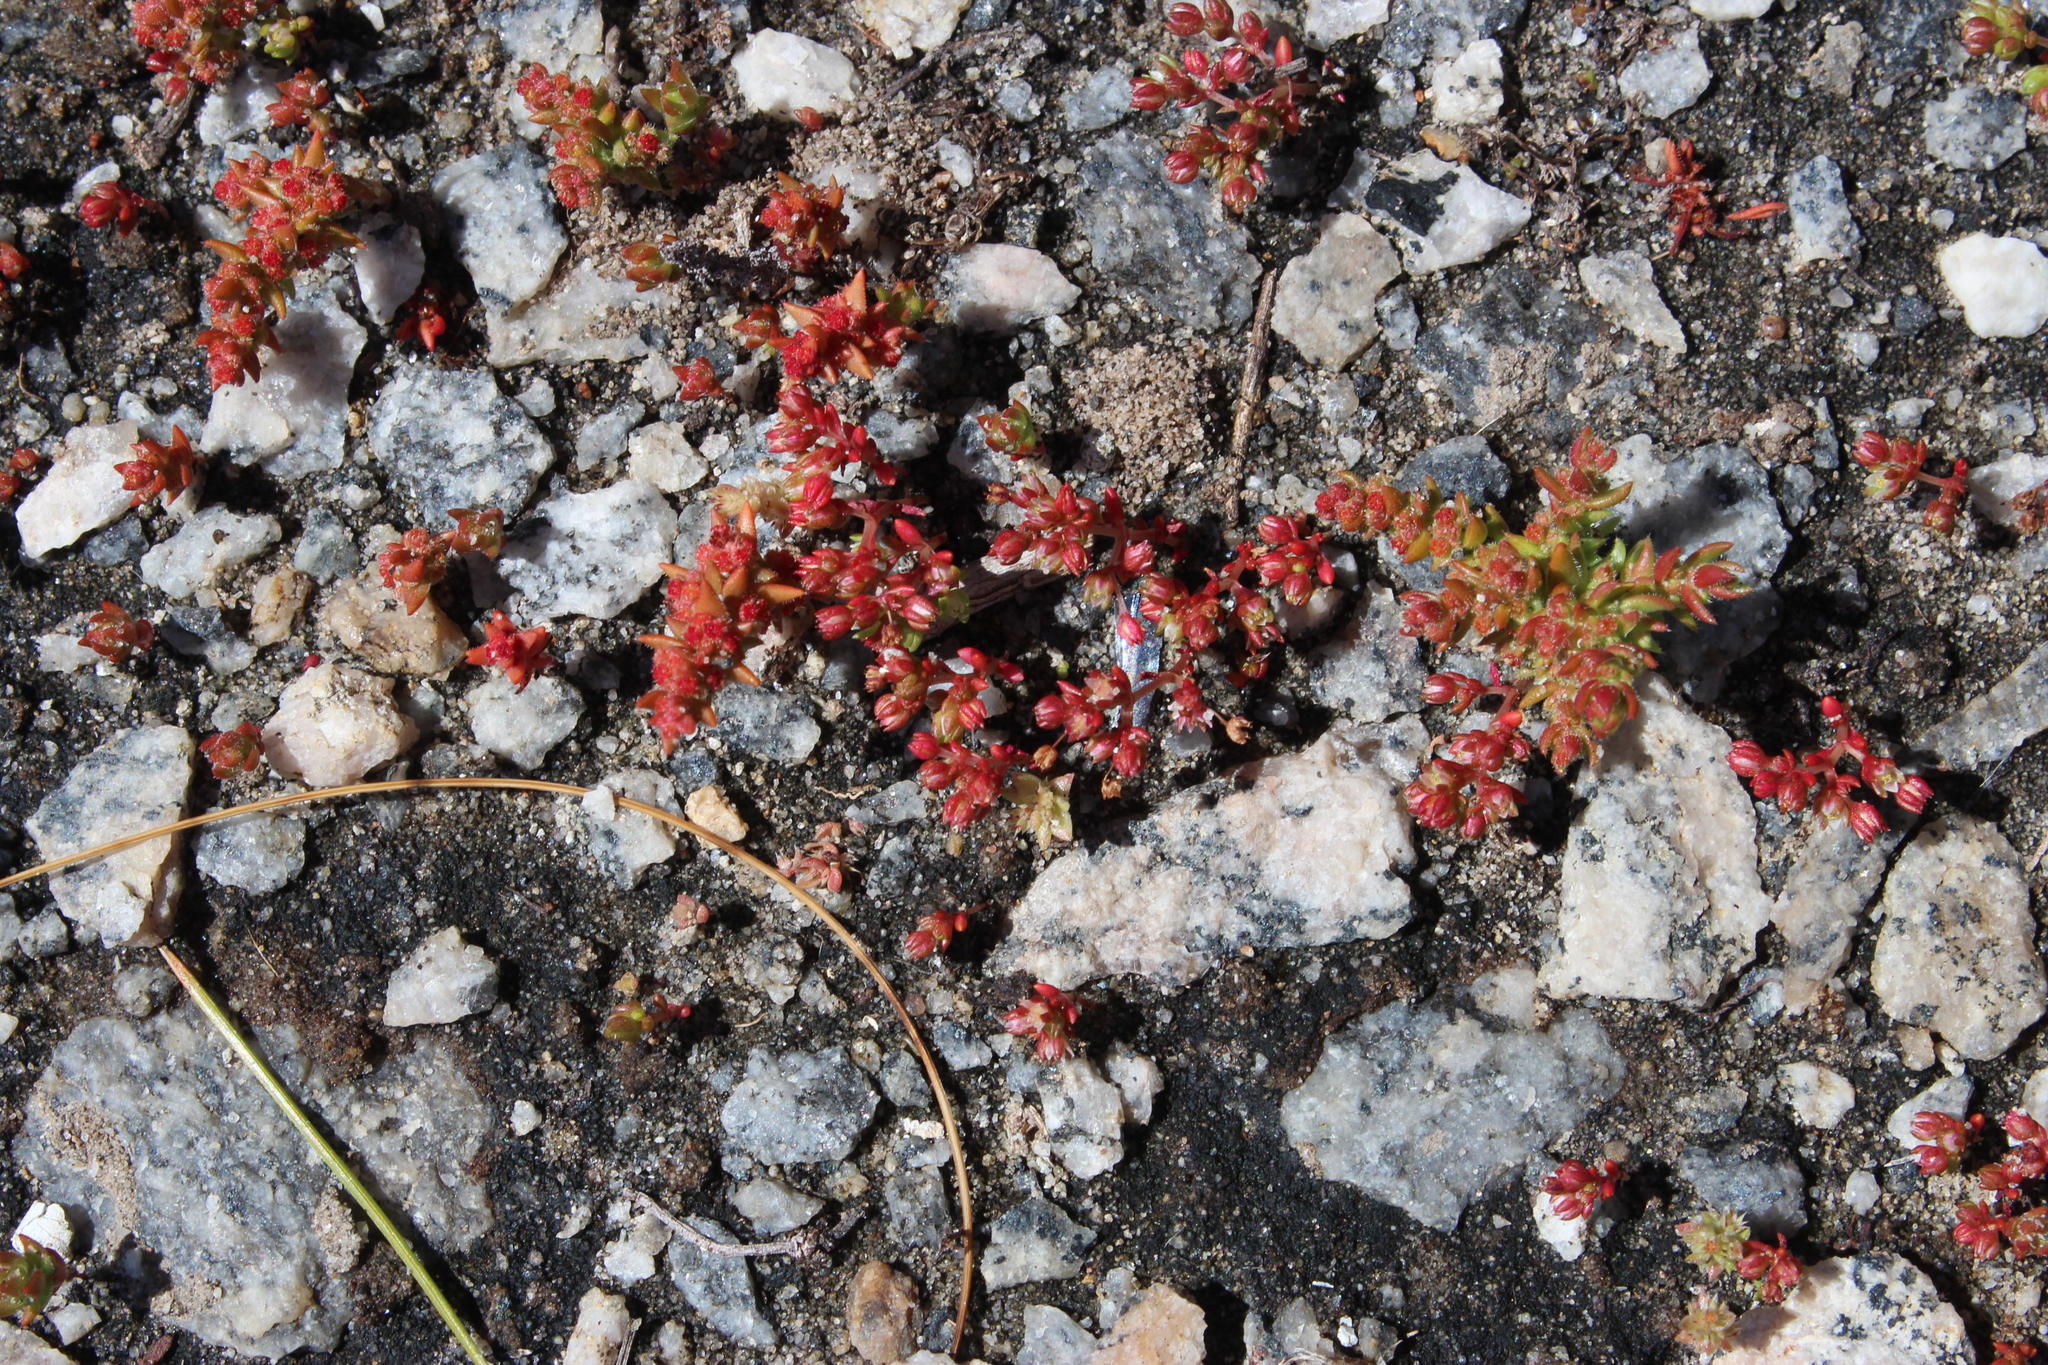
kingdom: Plantae
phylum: Tracheophyta
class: Magnoliopsida
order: Saxifragales
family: Crassulaceae
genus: Crassula
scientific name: Crassula hirsuta
